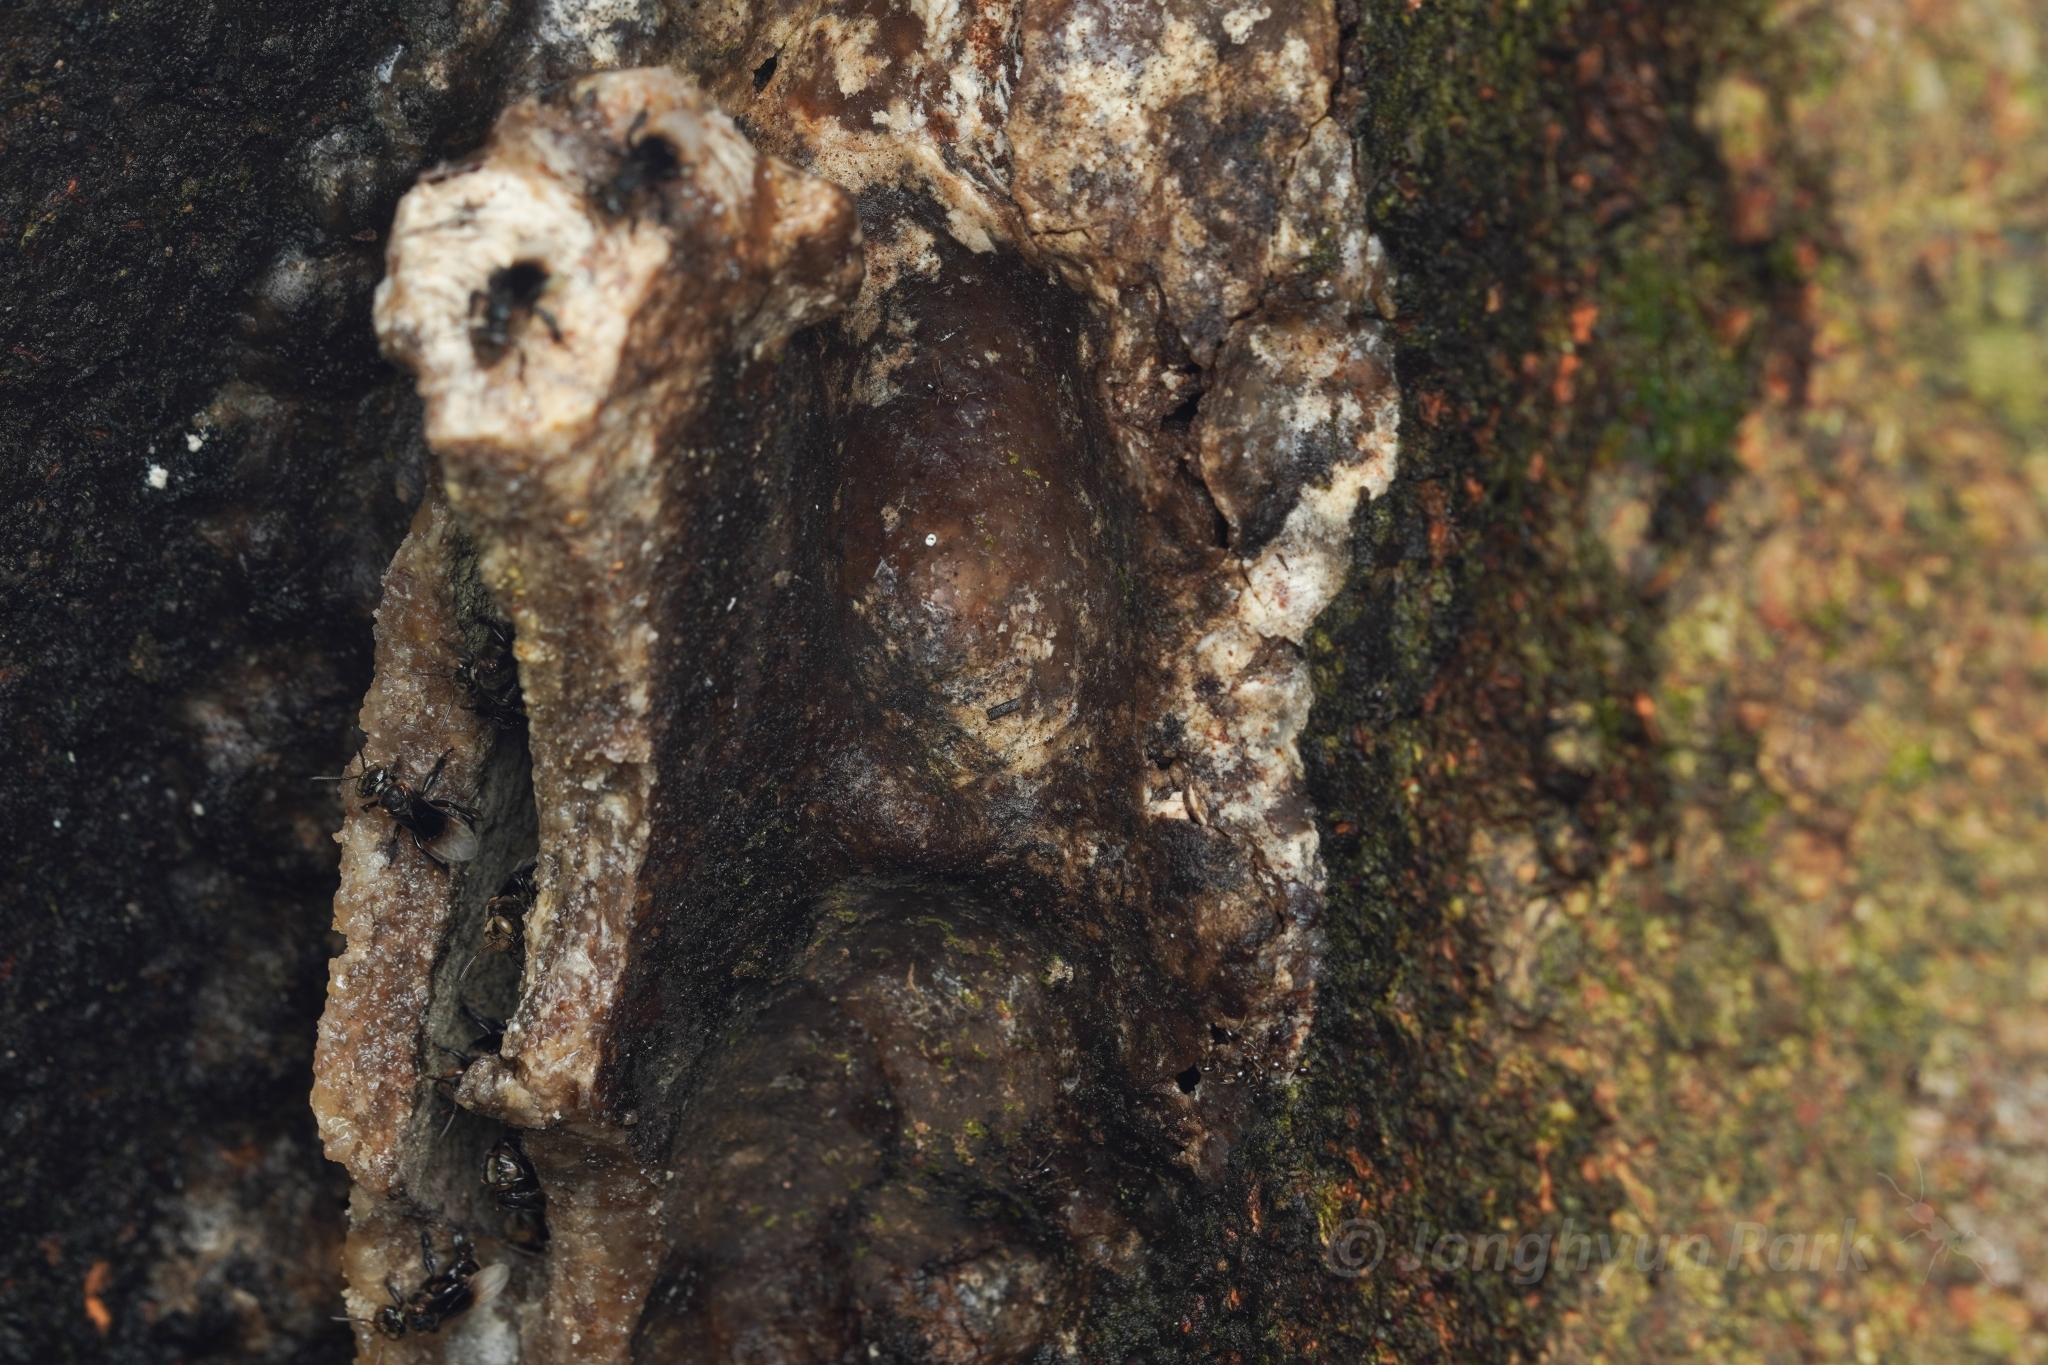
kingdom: Animalia
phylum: Arthropoda
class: Insecta
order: Hymenoptera
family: Apidae
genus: Homotrigona
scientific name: Homotrigona apicalis
